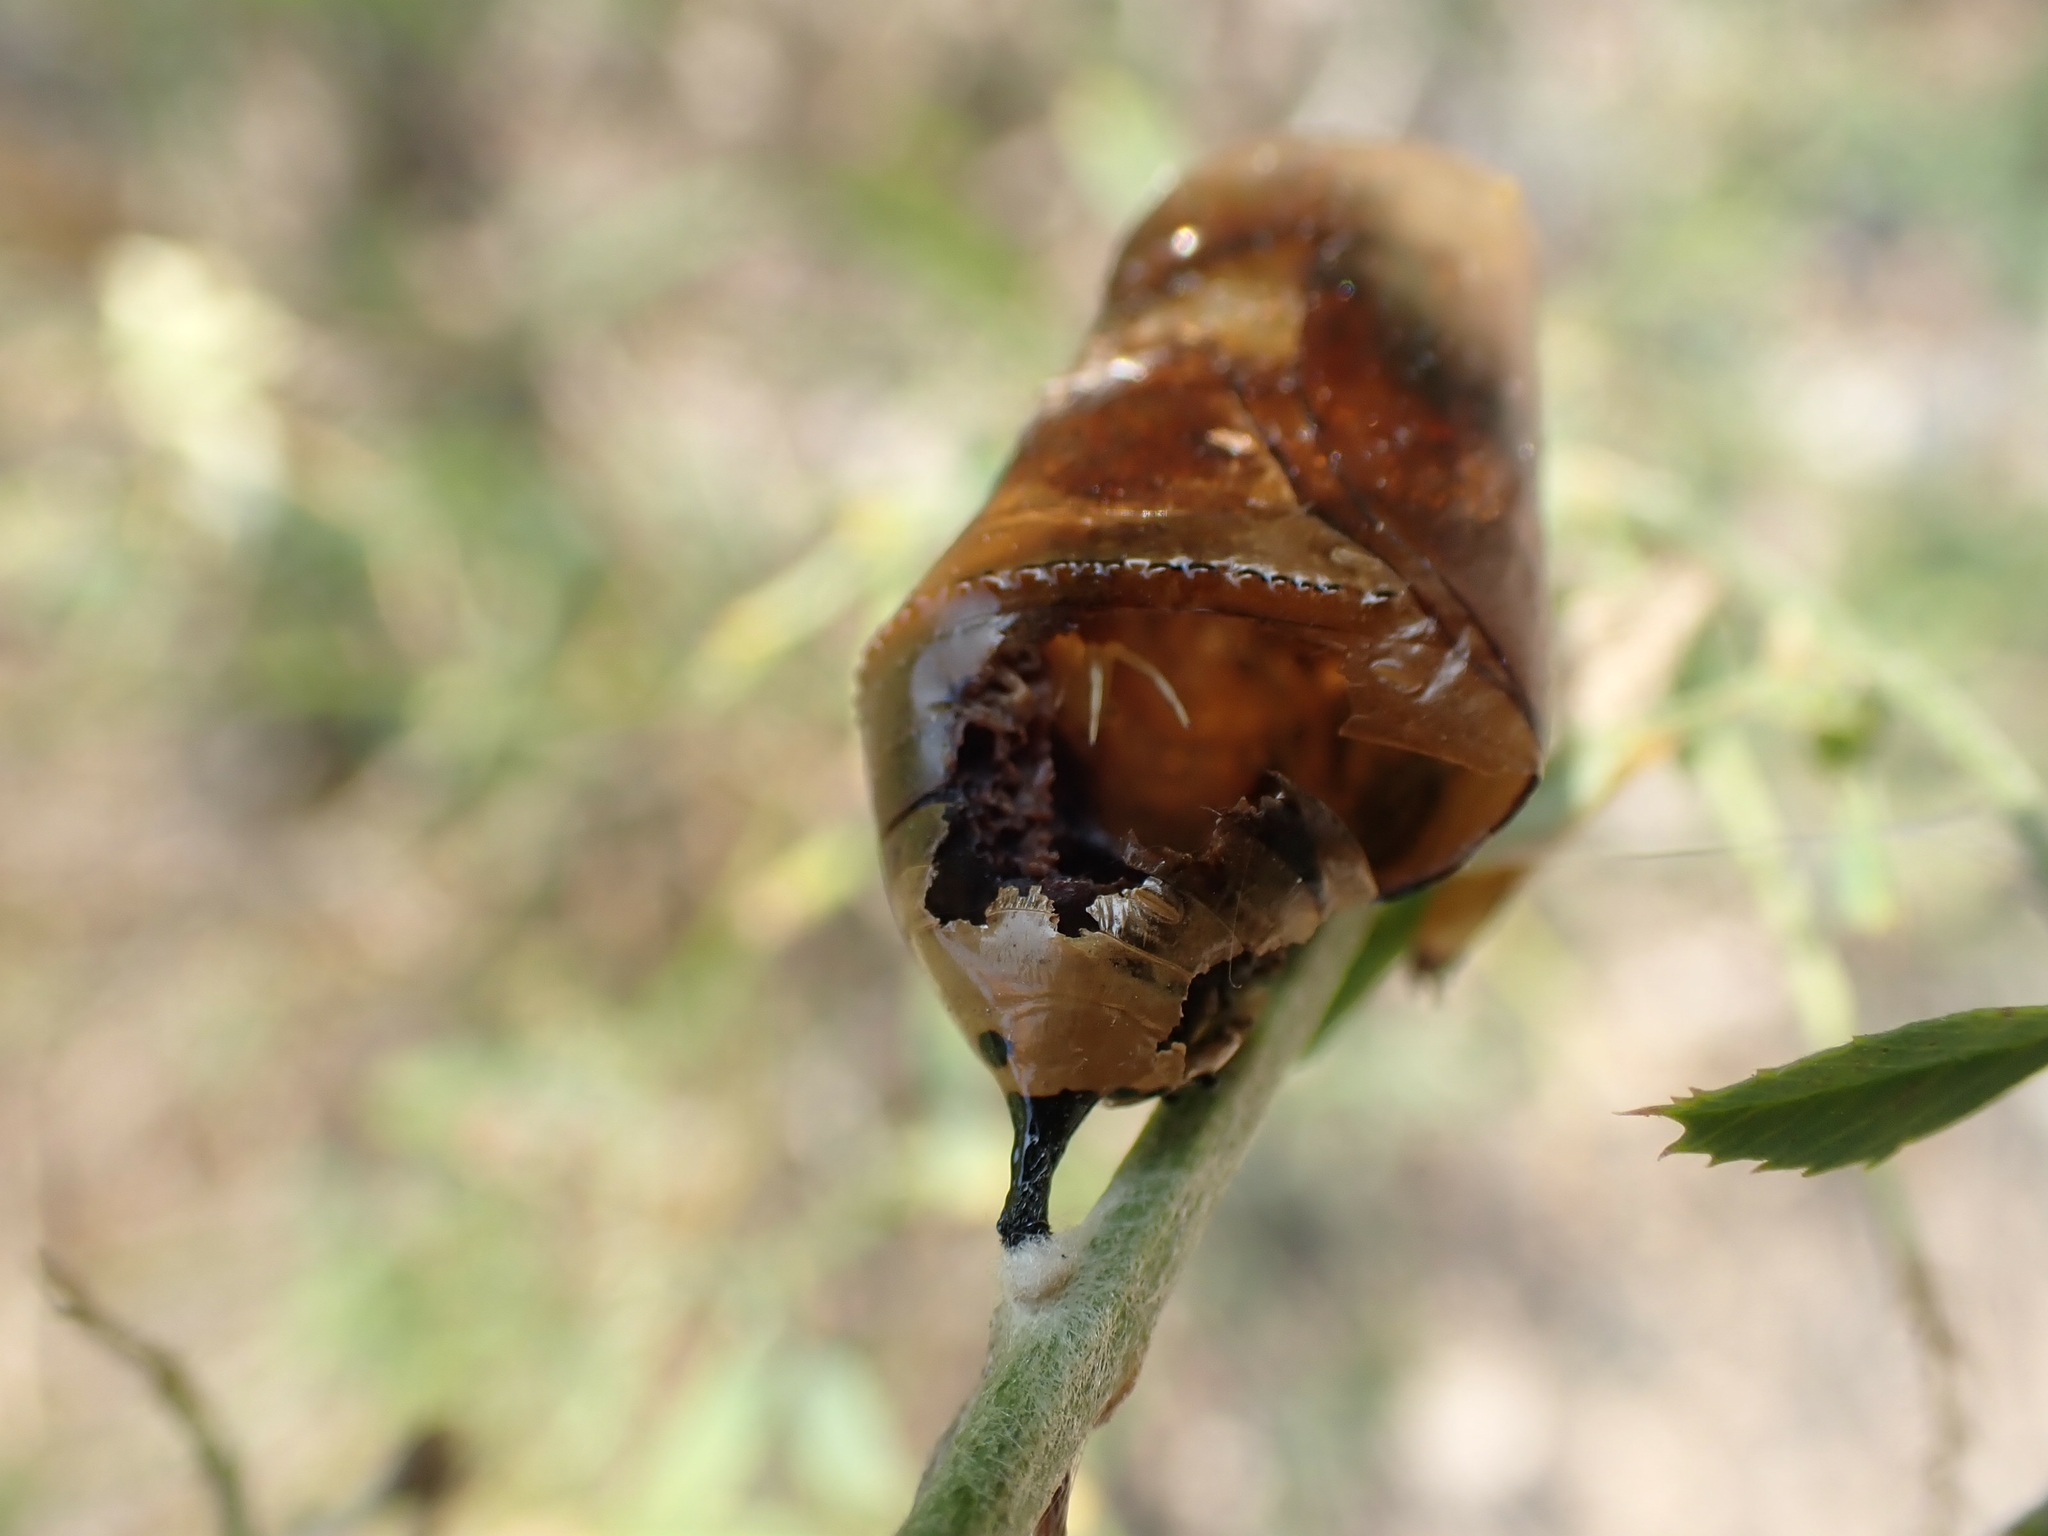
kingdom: Animalia
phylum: Arthropoda
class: Insecta
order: Lepidoptera
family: Nymphalidae
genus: Danaus
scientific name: Danaus plexippus
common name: Monarch
